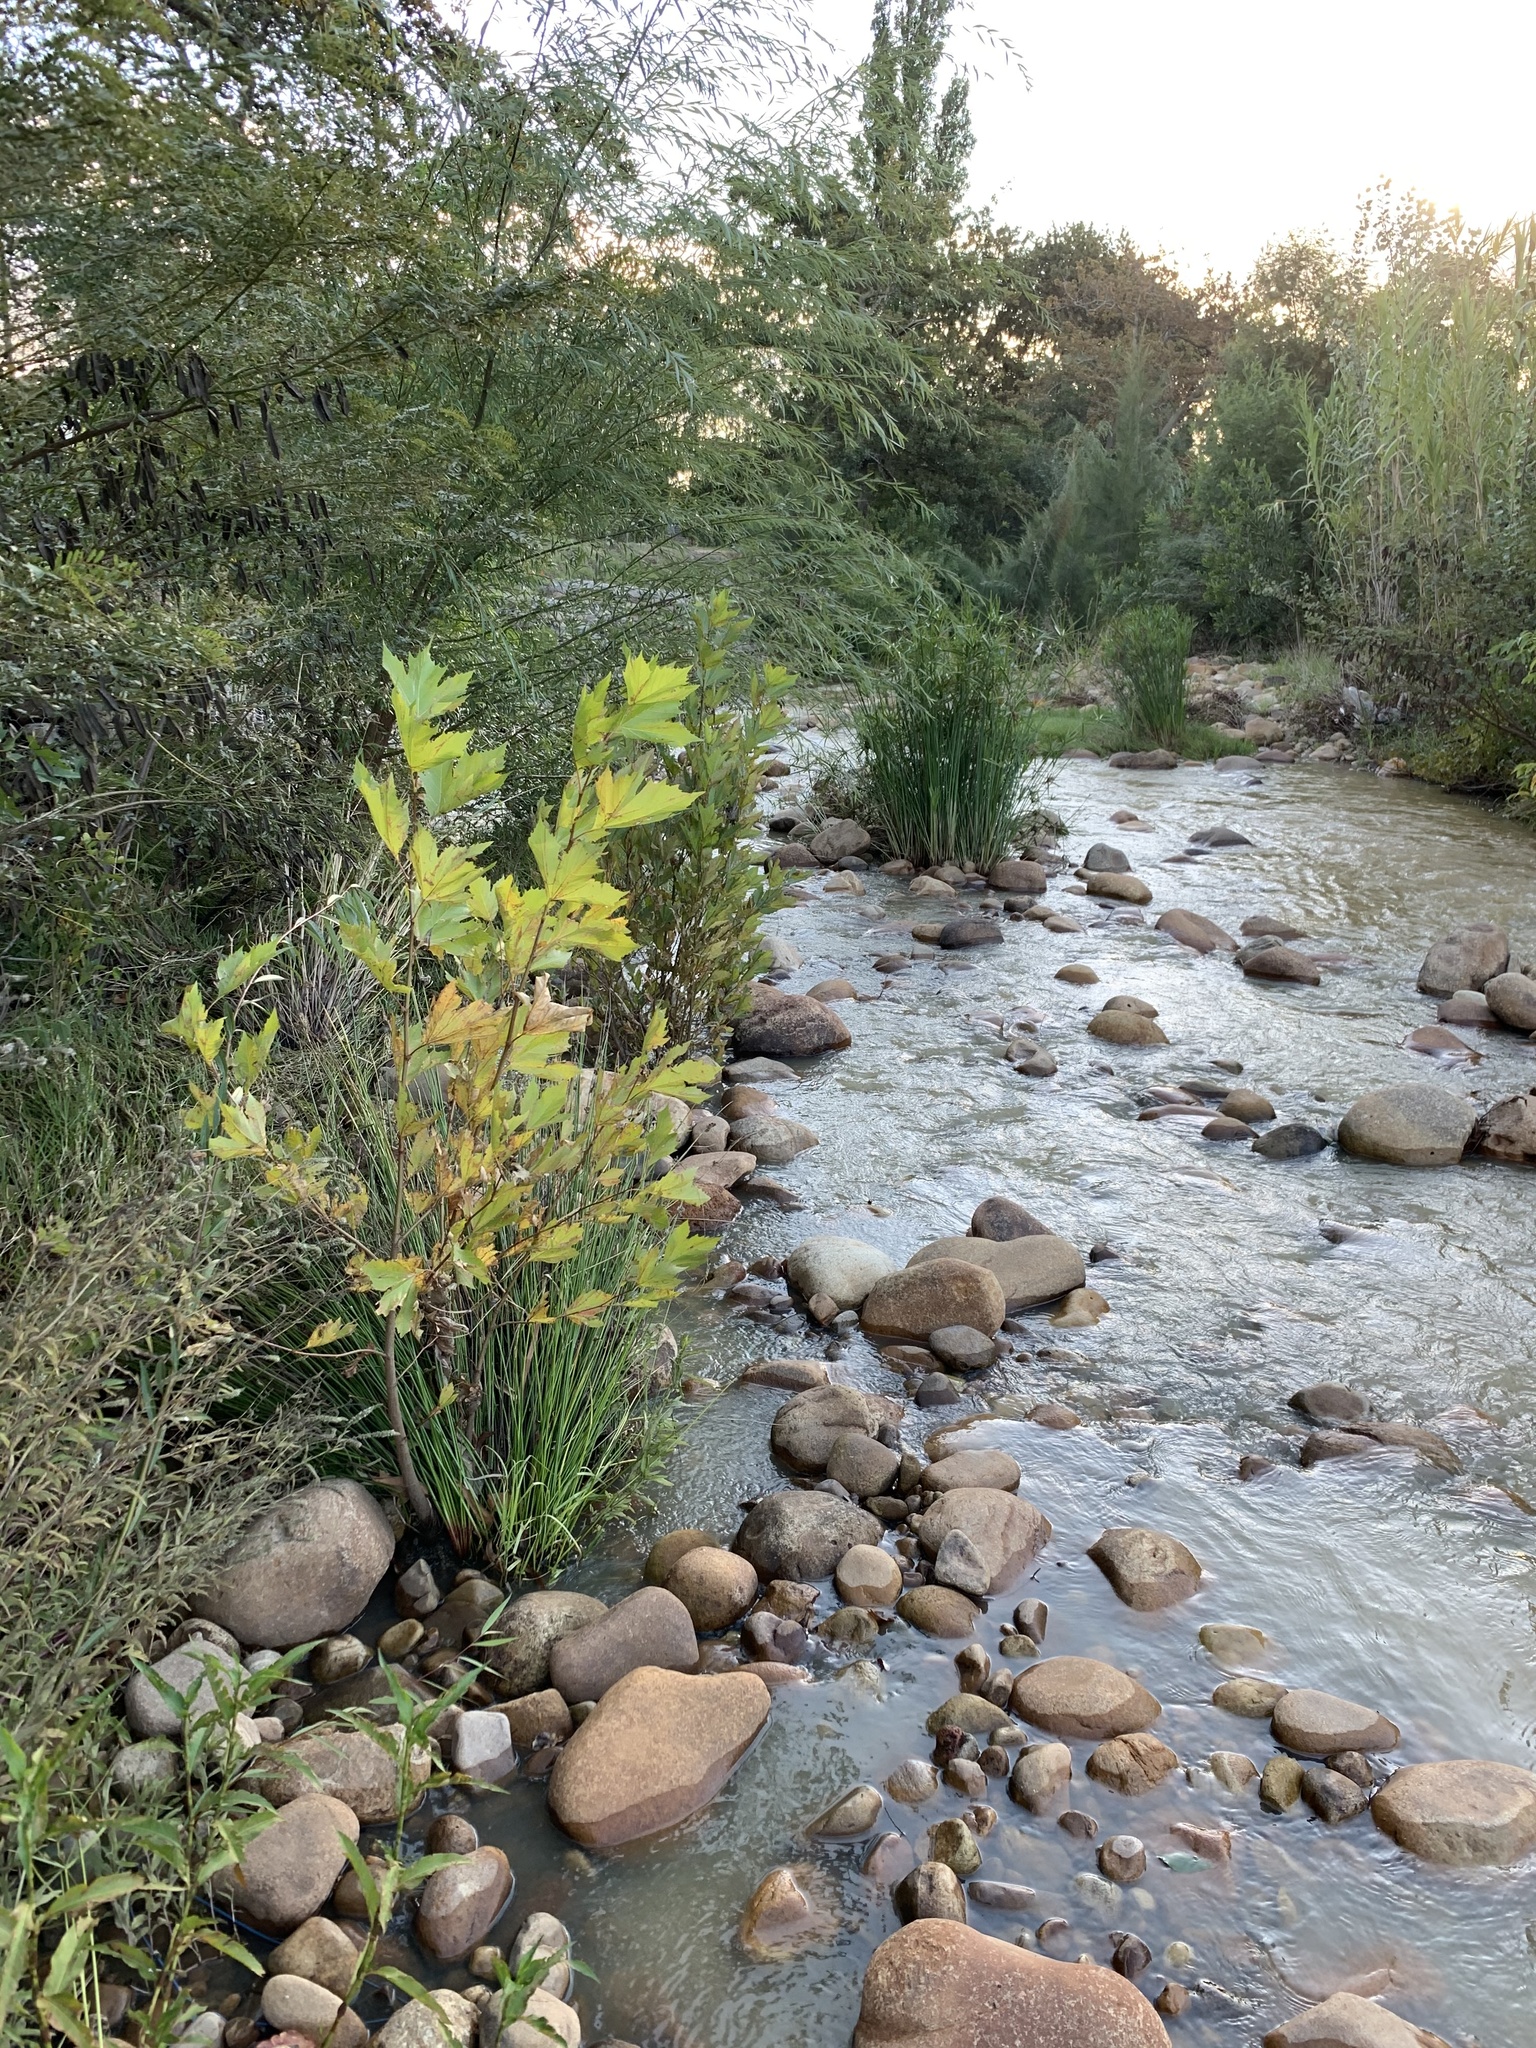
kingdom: Plantae
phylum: Tracheophyta
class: Magnoliopsida
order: Proteales
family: Platanaceae
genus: Platanus
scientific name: Platanus hispanica
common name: London plane
